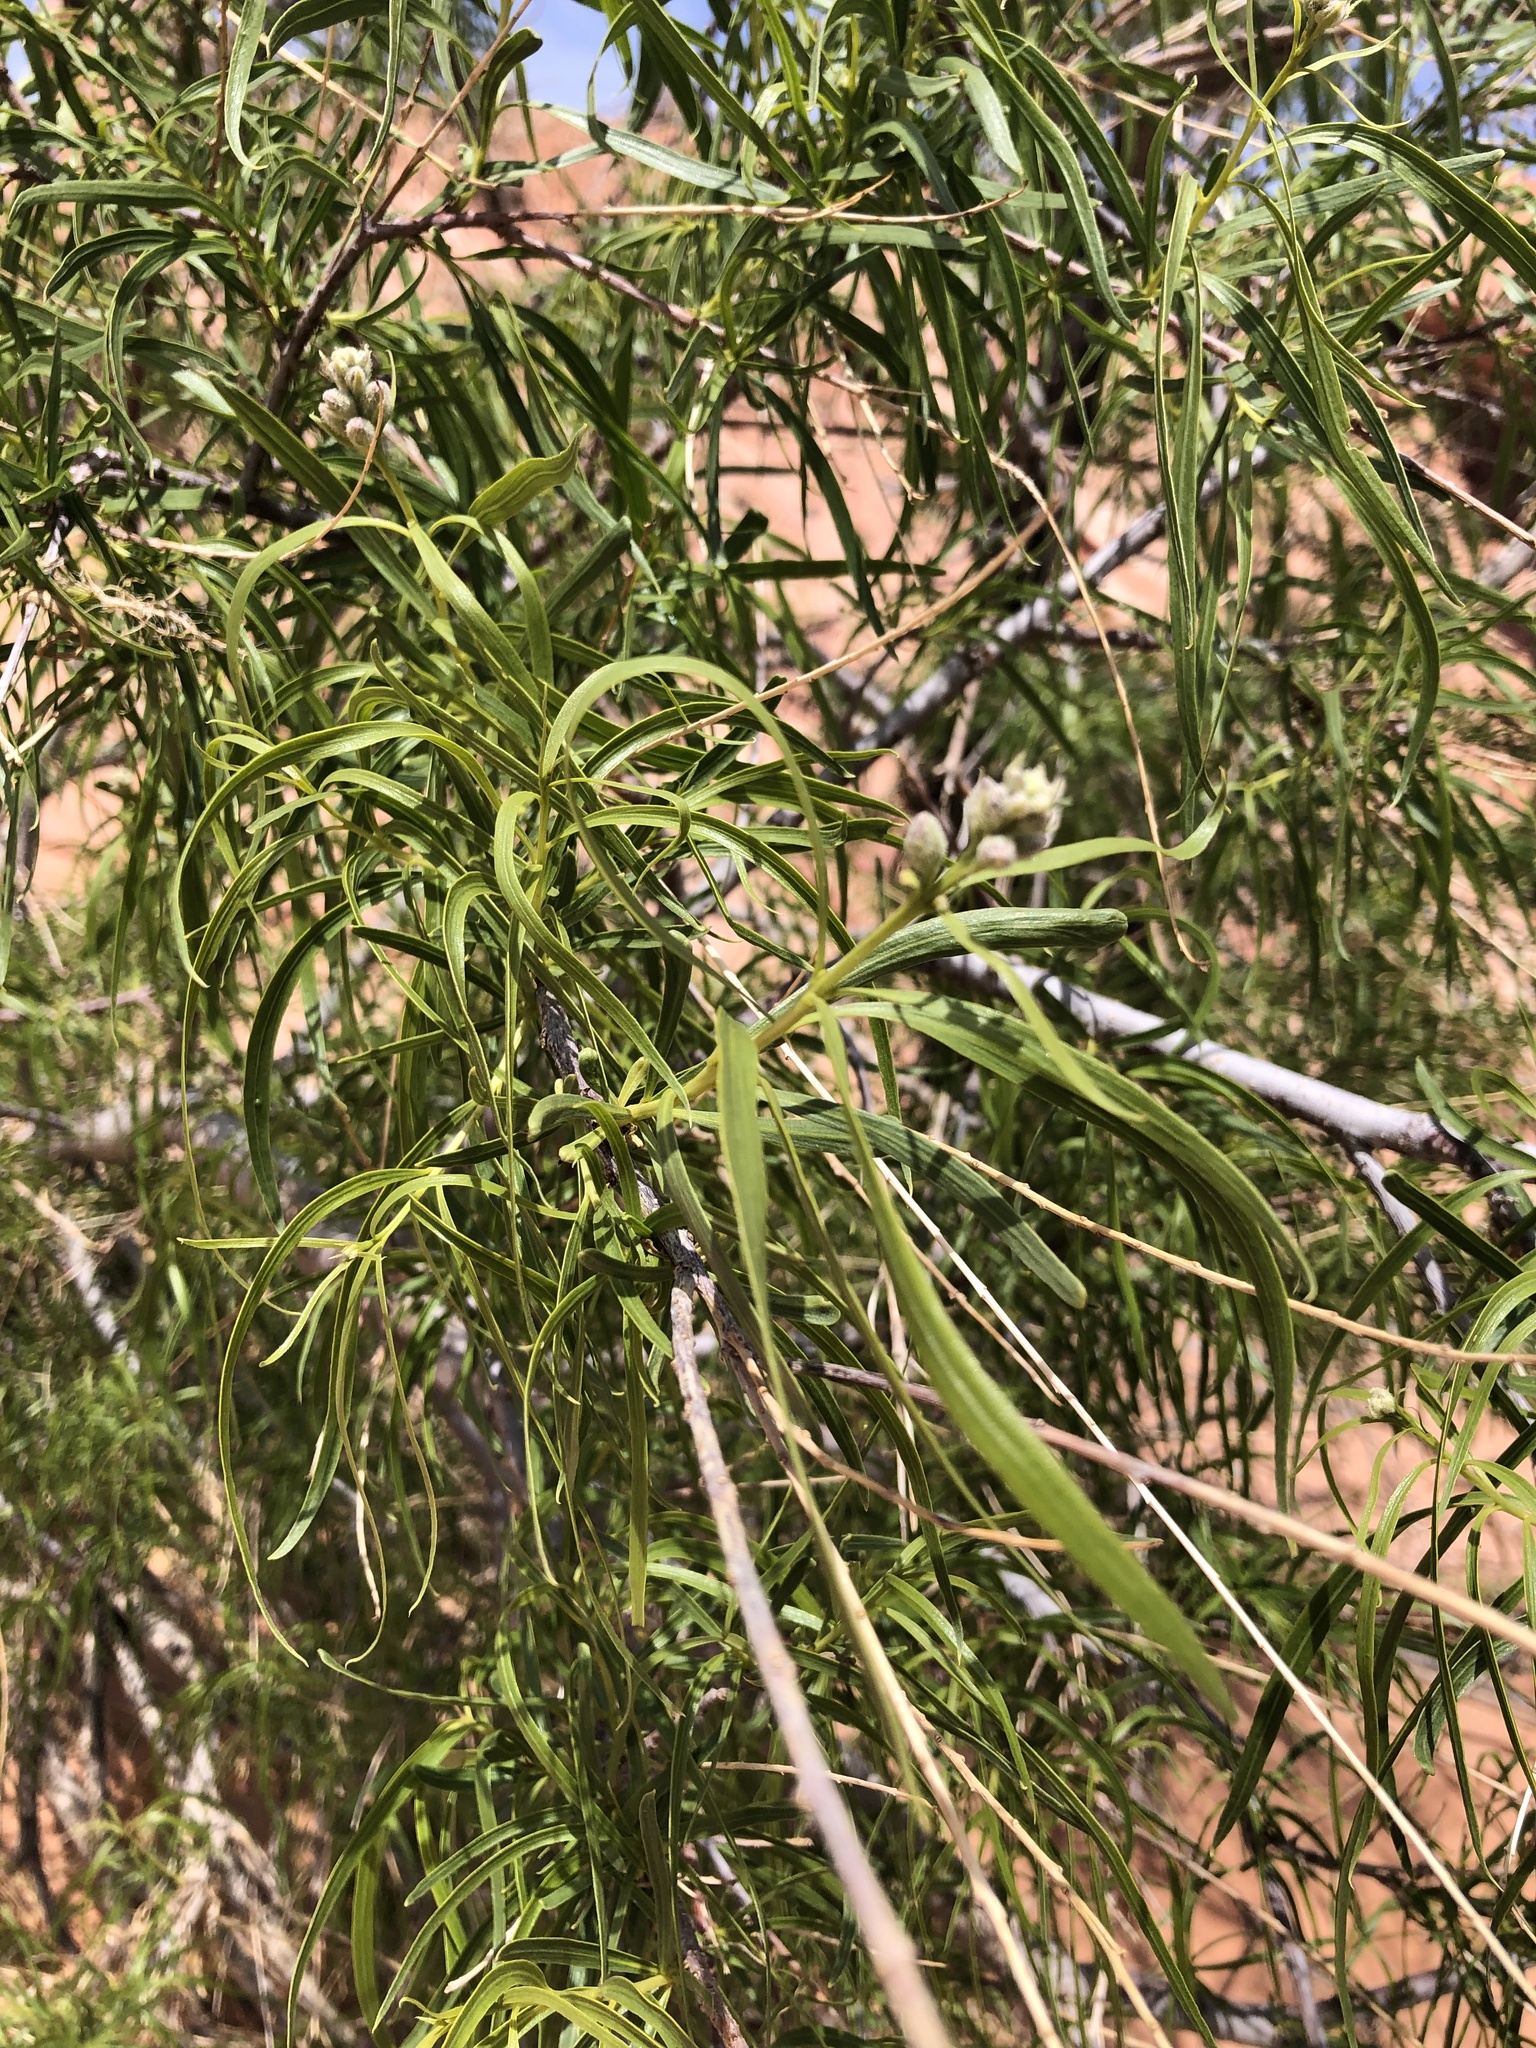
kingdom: Plantae
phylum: Tracheophyta
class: Magnoliopsida
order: Lamiales
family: Bignoniaceae
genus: Chilopsis
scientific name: Chilopsis linearis
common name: Desert-willow
